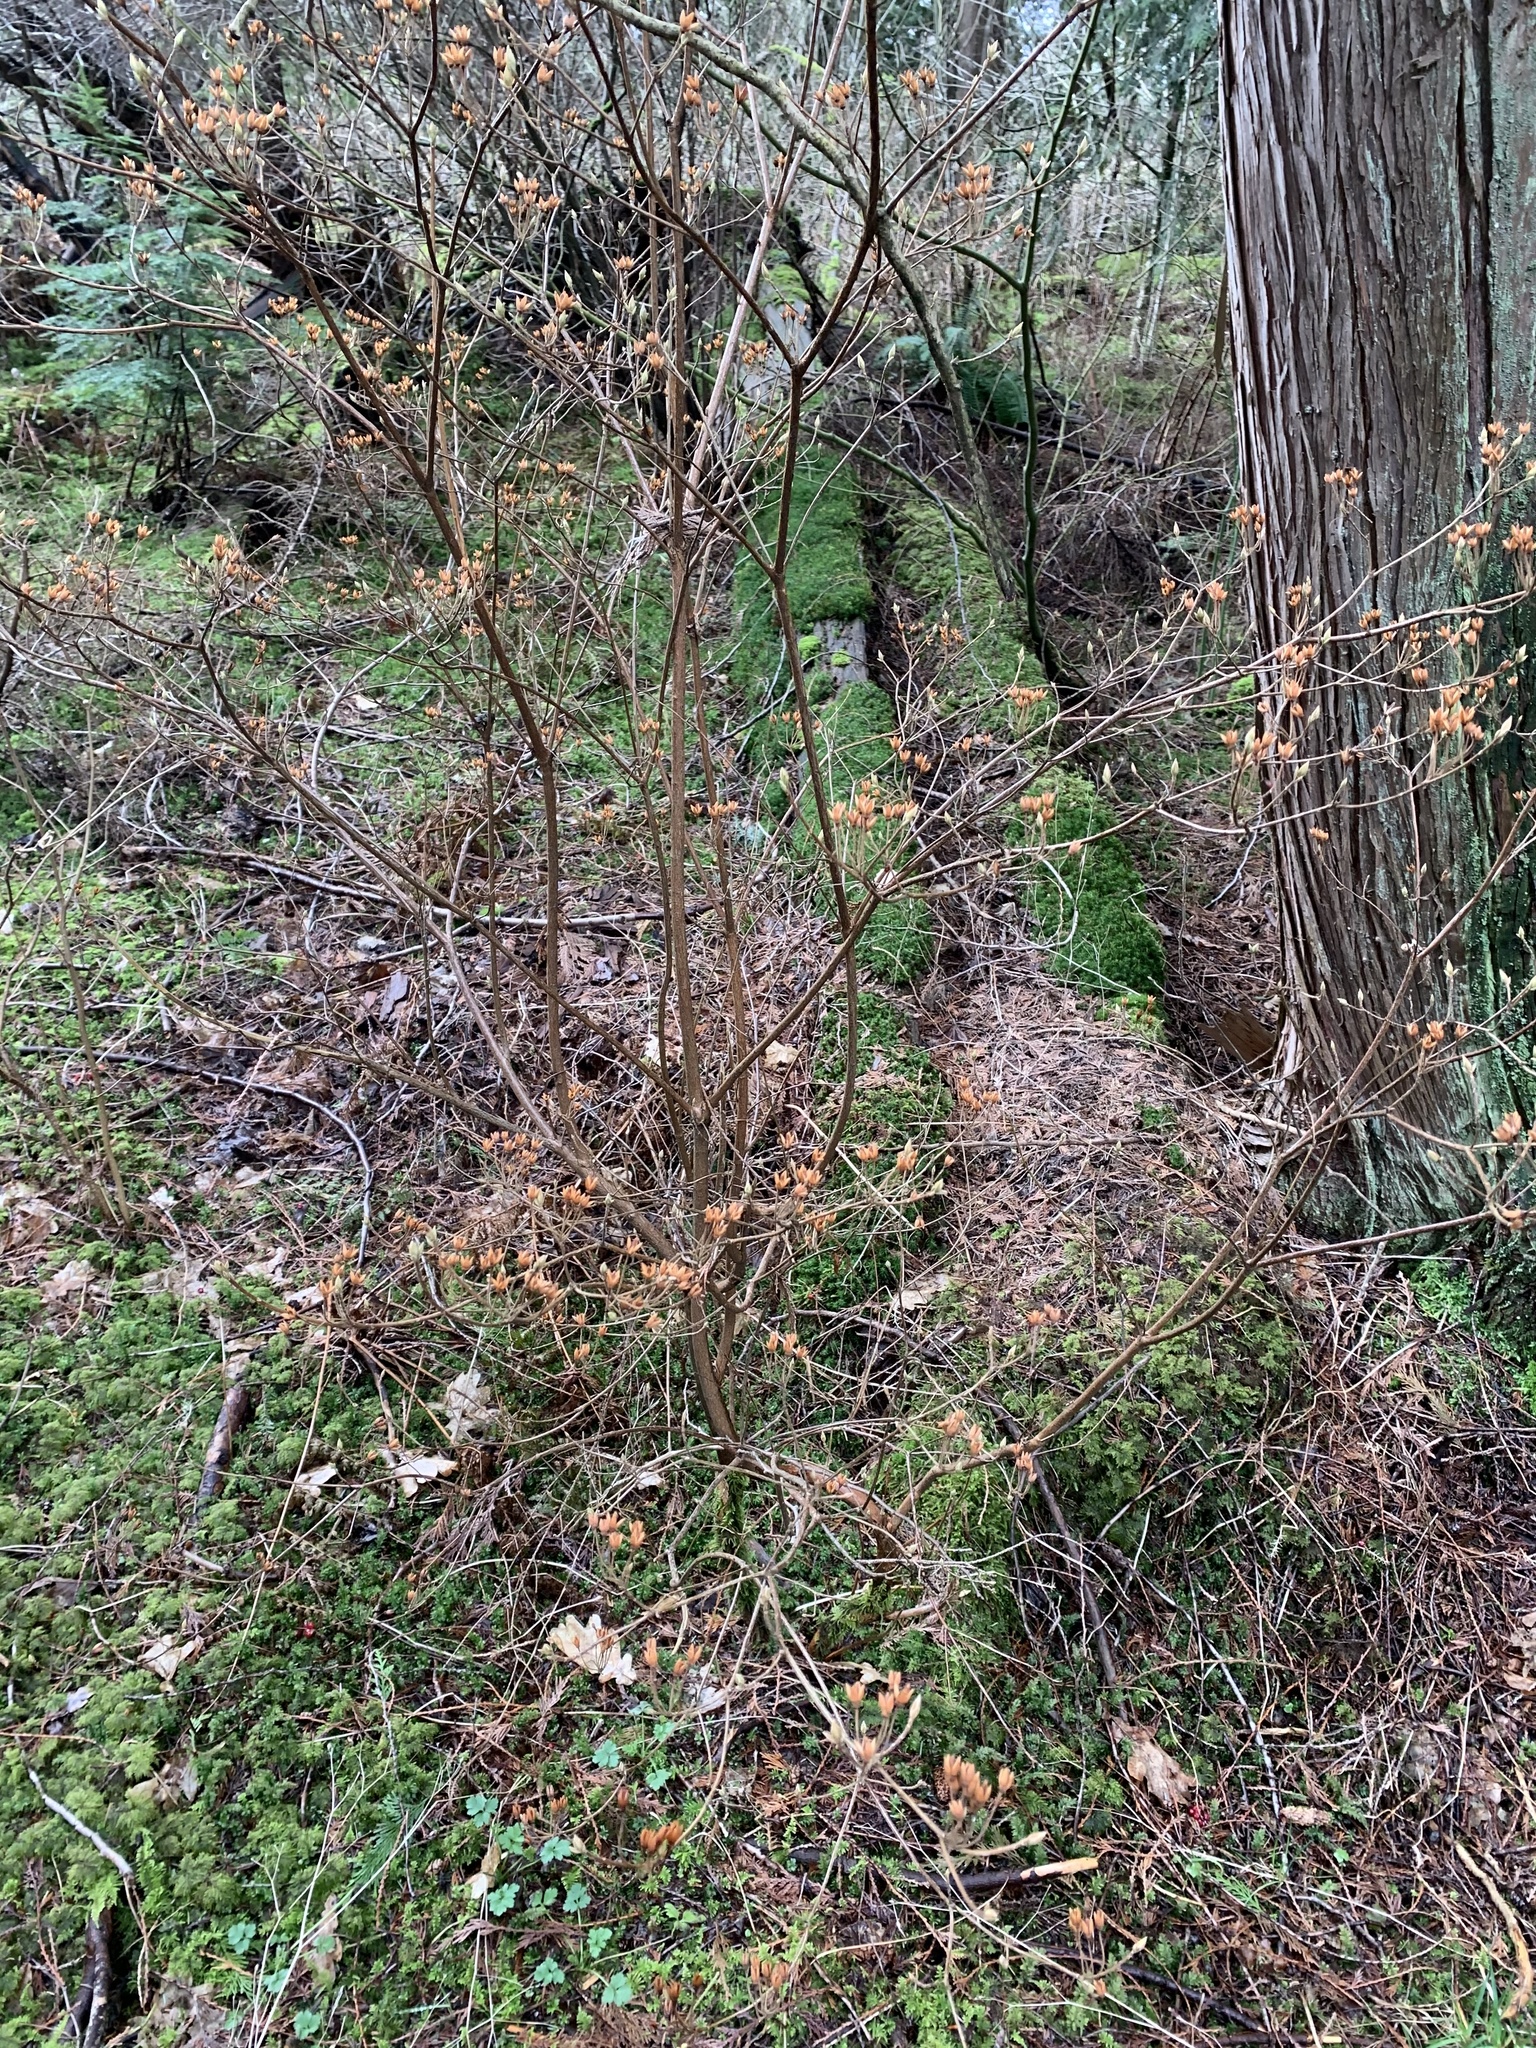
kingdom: Plantae
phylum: Tracheophyta
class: Magnoliopsida
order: Ericales
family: Ericaceae
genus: Rhododendron
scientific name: Rhododendron menziesii
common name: Pacific menziesia
